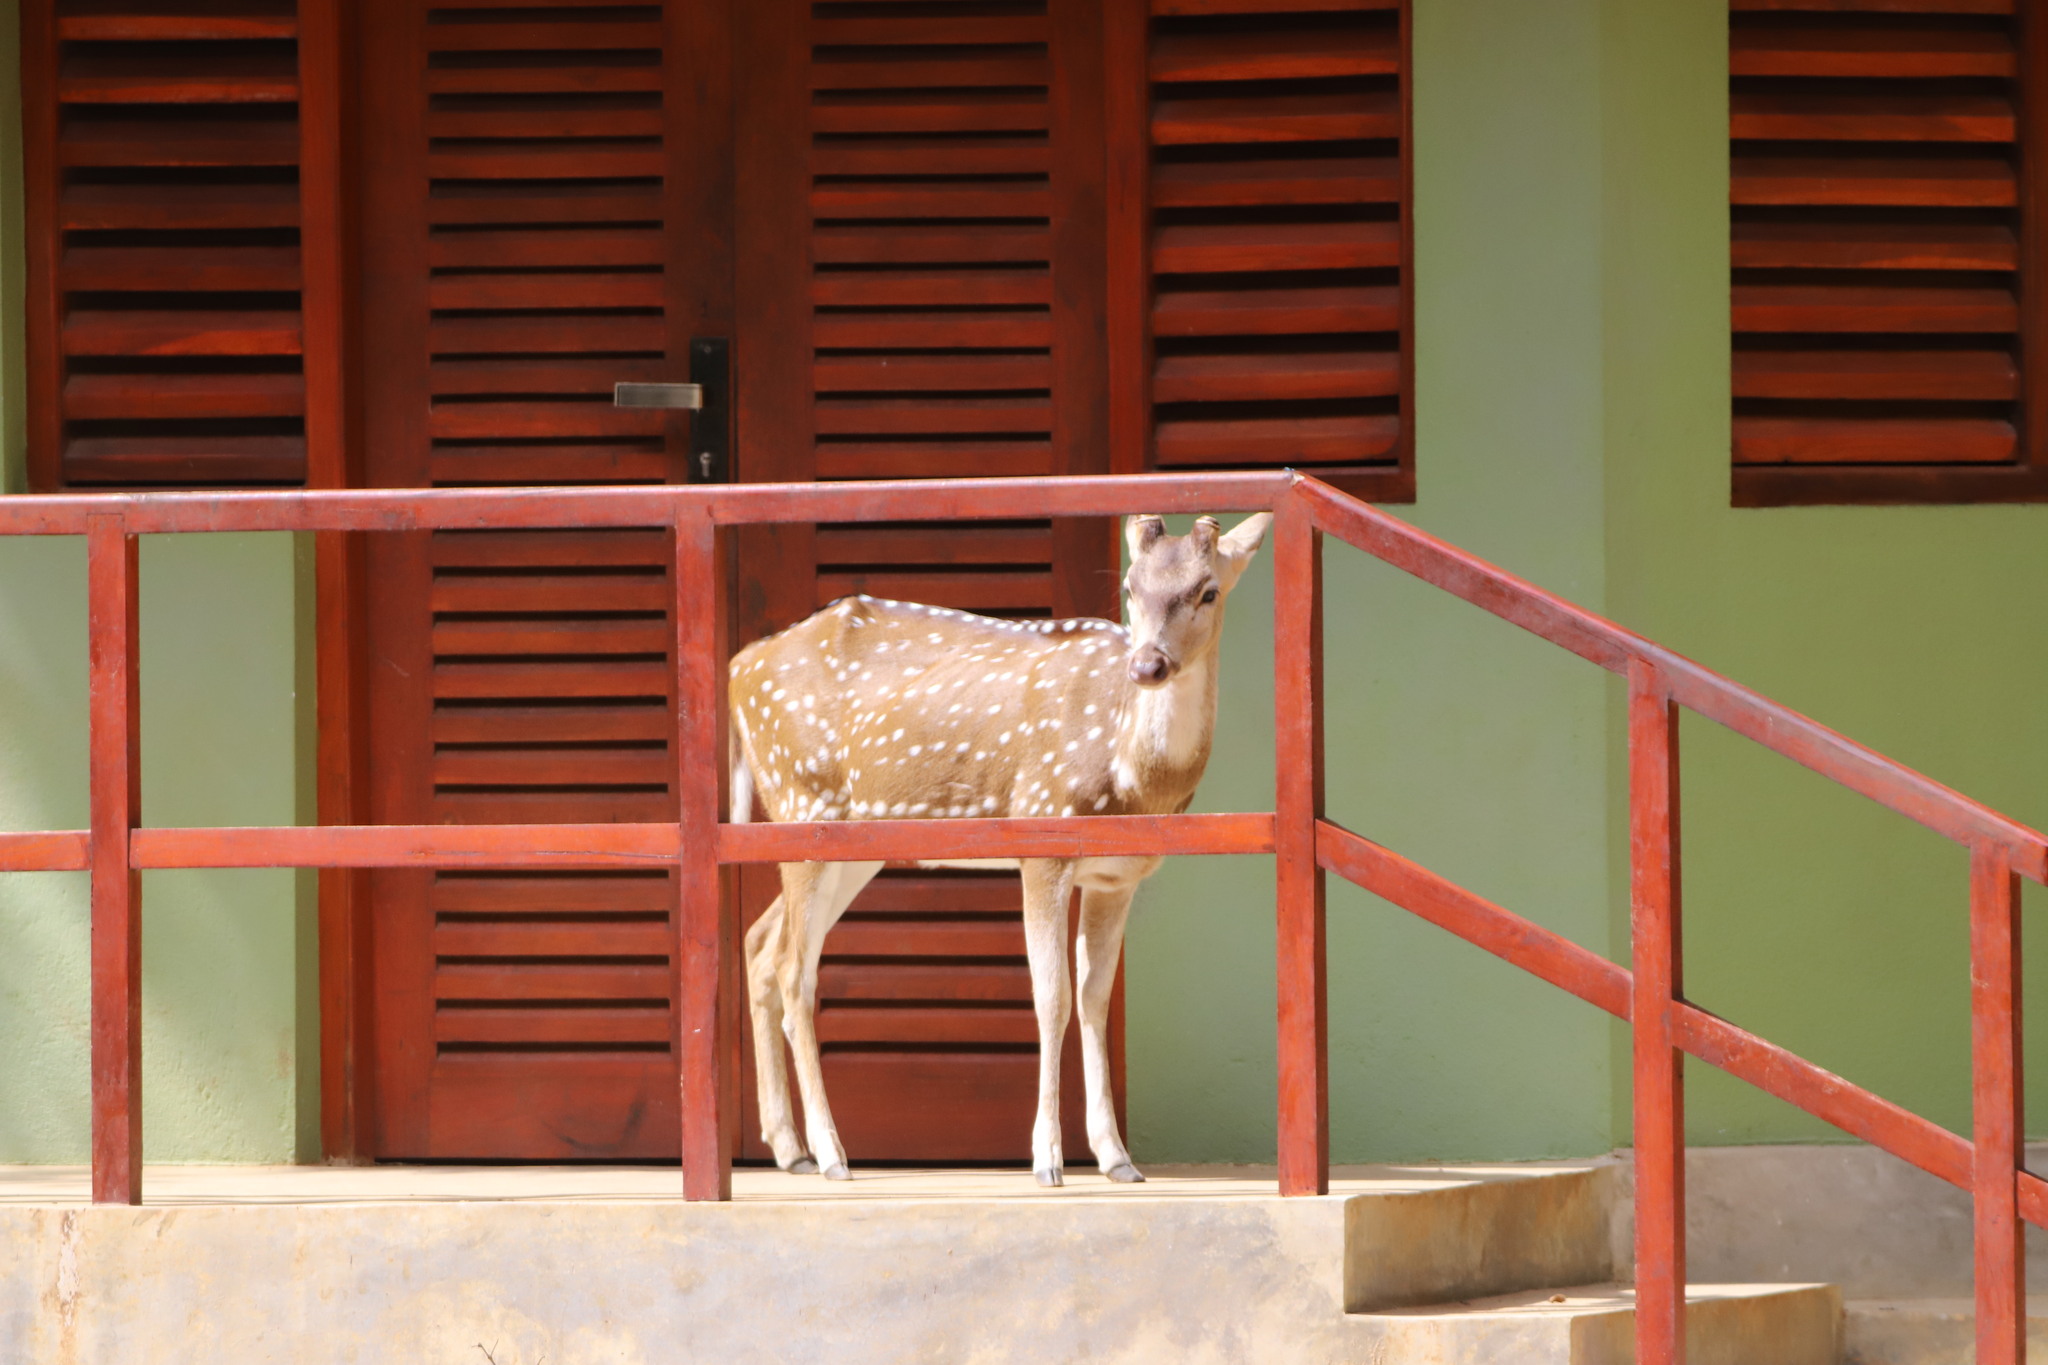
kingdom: Animalia
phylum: Chordata
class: Mammalia
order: Artiodactyla
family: Cervidae
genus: Axis
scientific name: Axis axis
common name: Chital
